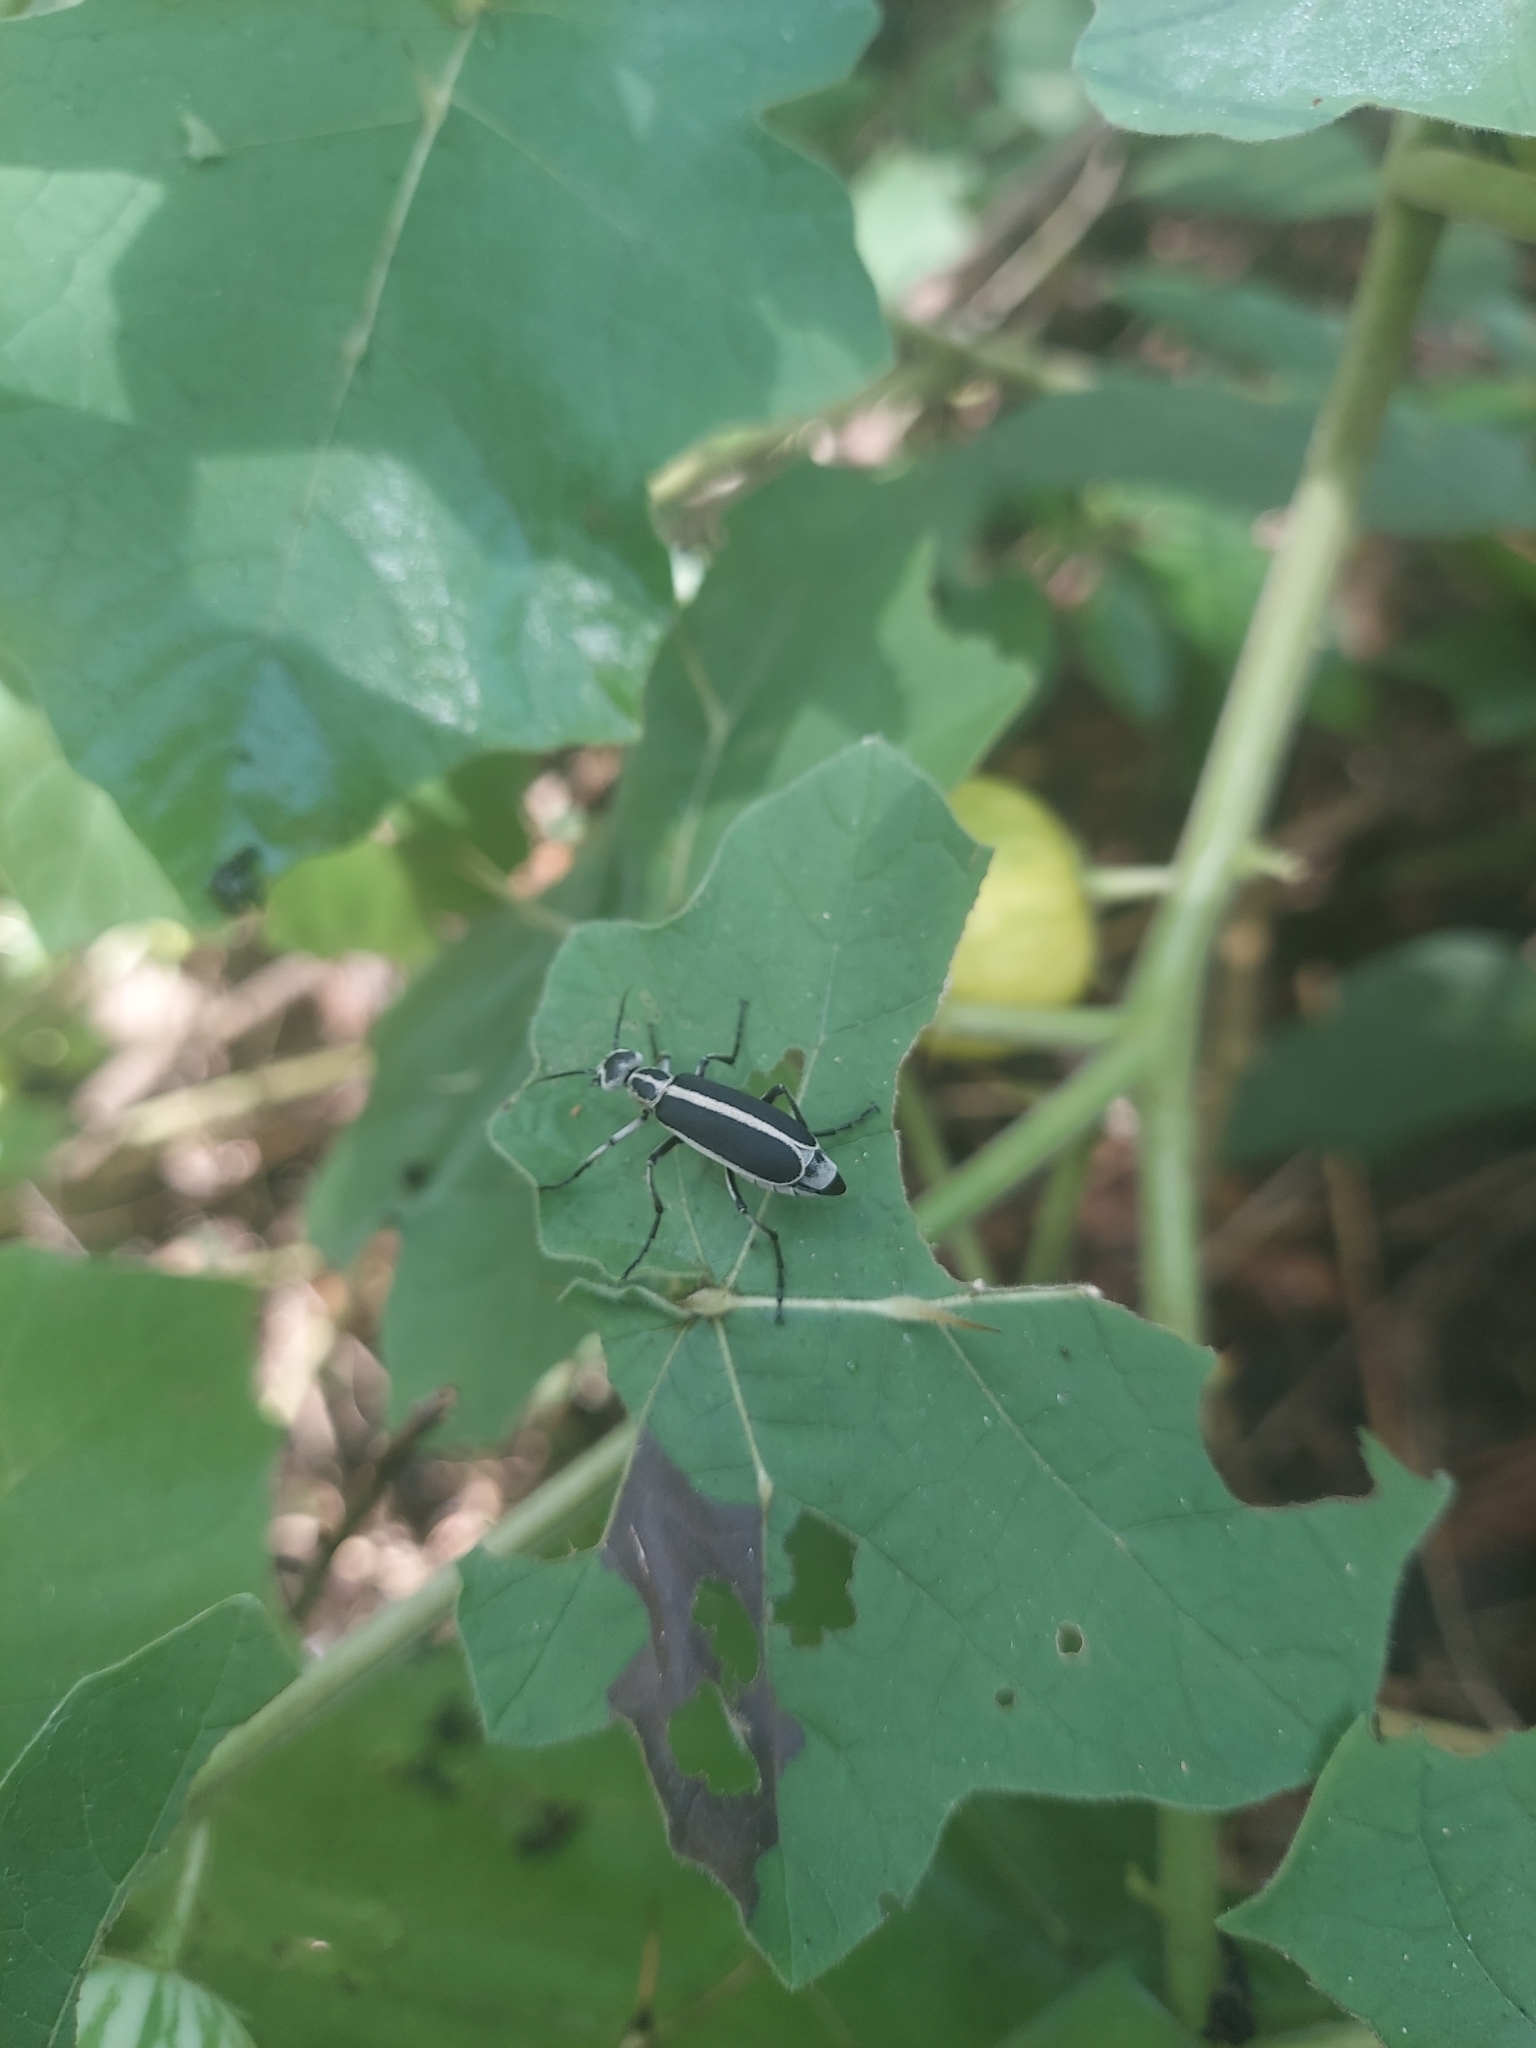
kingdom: Animalia
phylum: Arthropoda
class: Insecta
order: Coleoptera
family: Meloidae
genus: Epicauta
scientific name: Epicauta funebris
